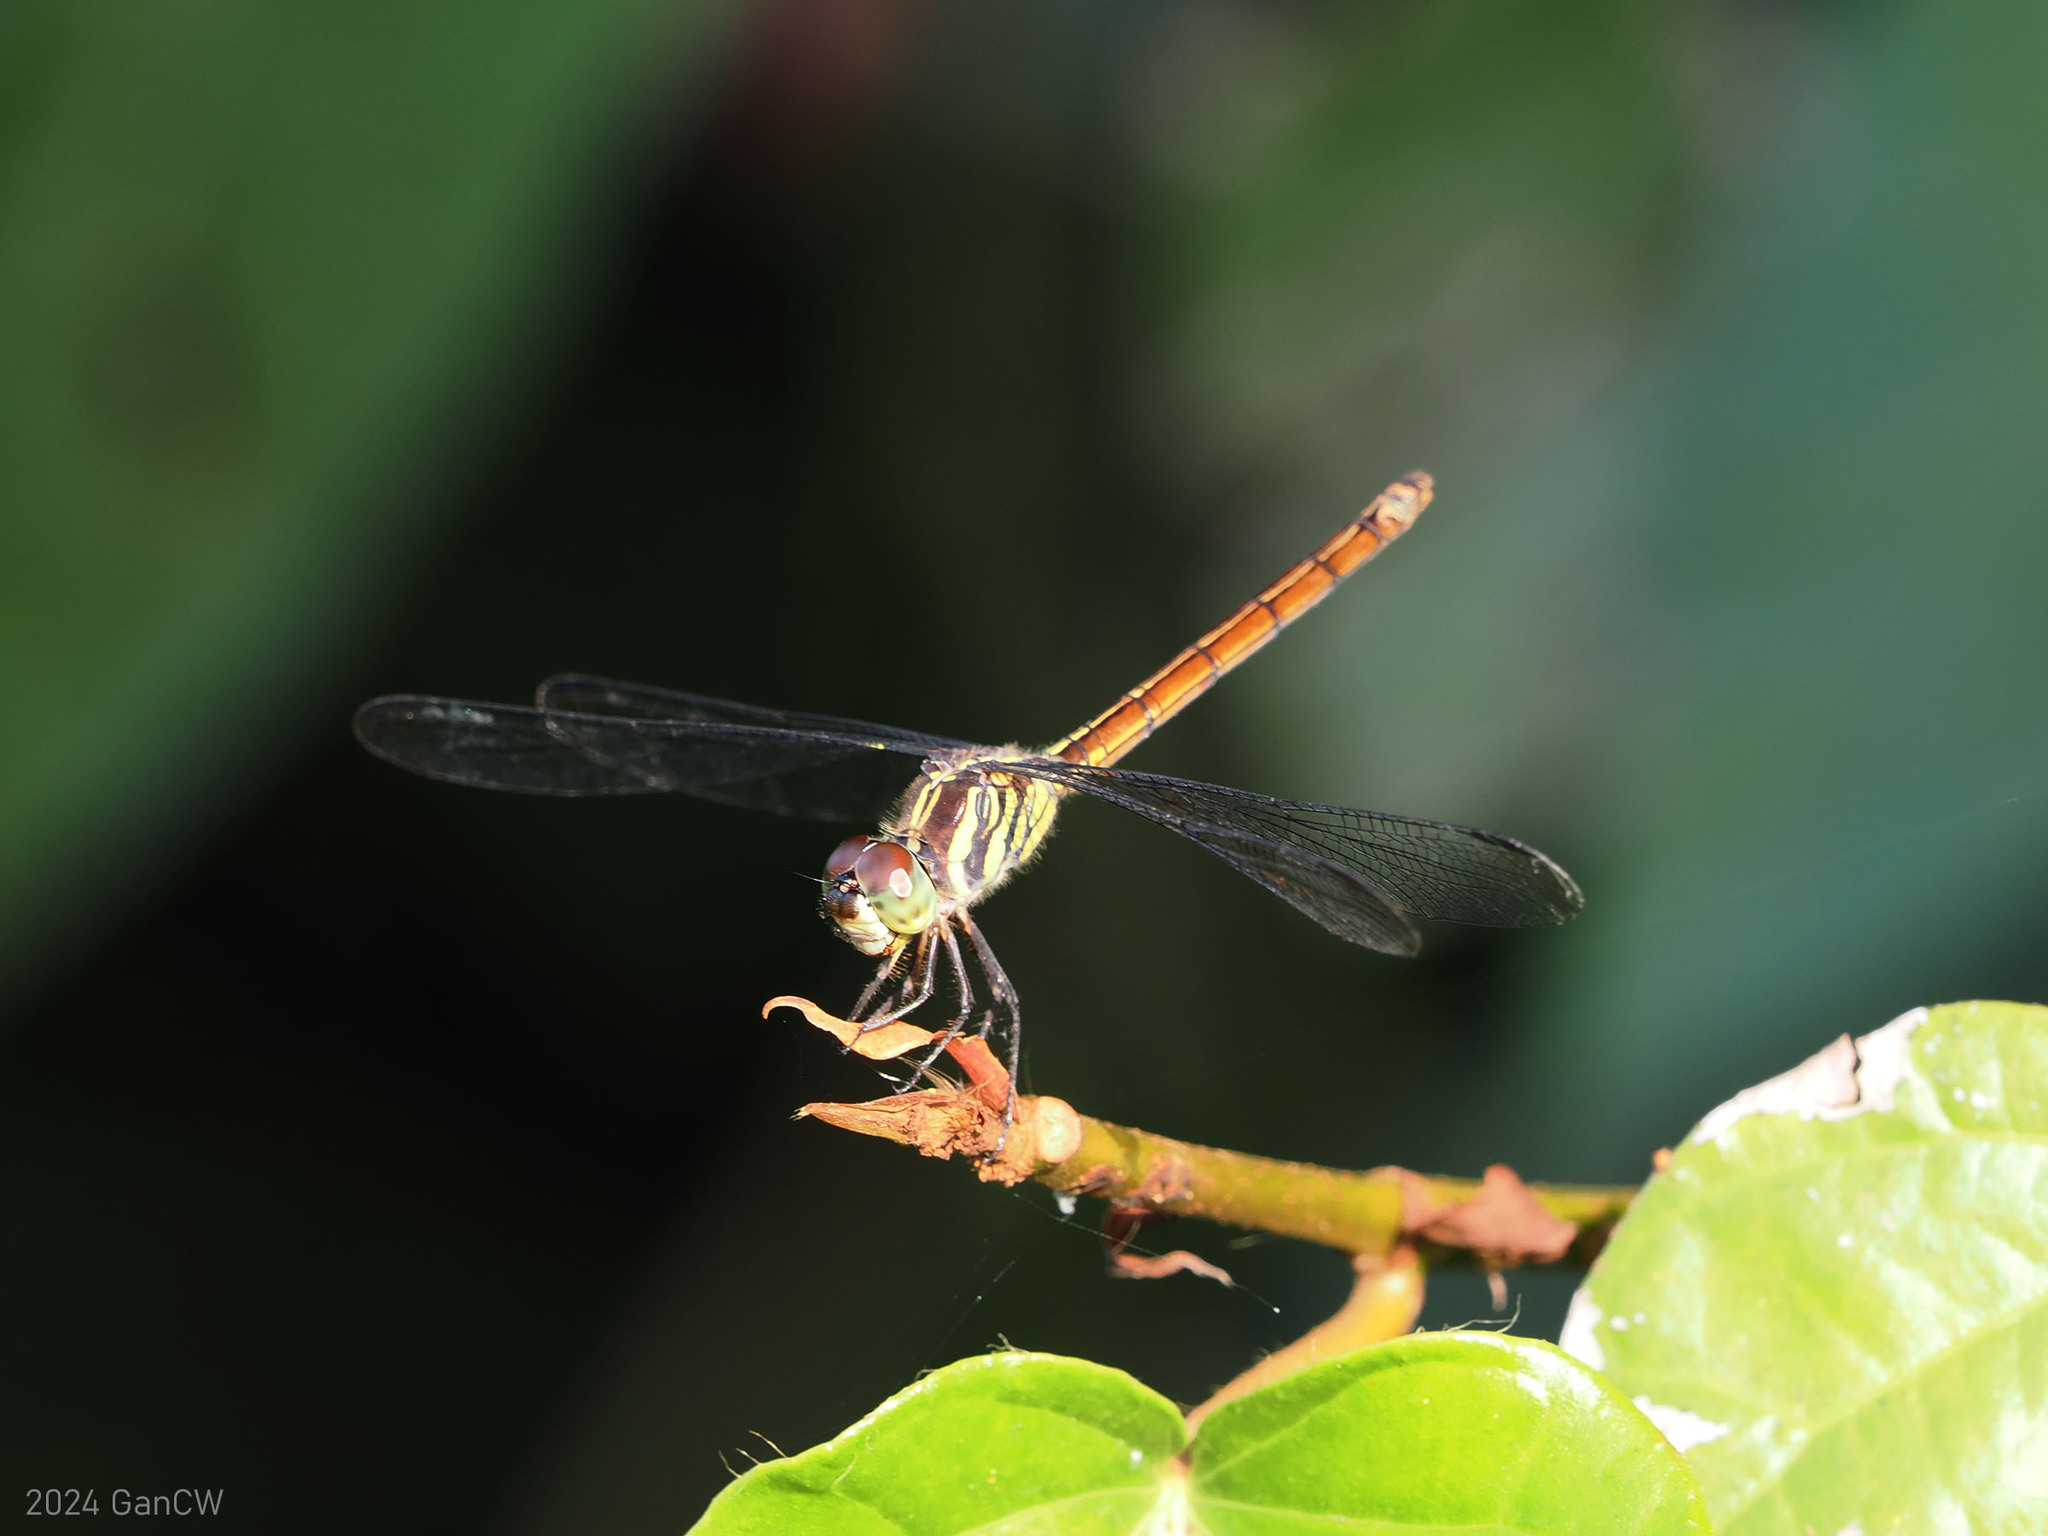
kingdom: Animalia
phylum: Arthropoda
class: Insecta
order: Odonata
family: Libellulidae
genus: Lathrecista
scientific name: Lathrecista asiatica
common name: Scarlet grenadier
